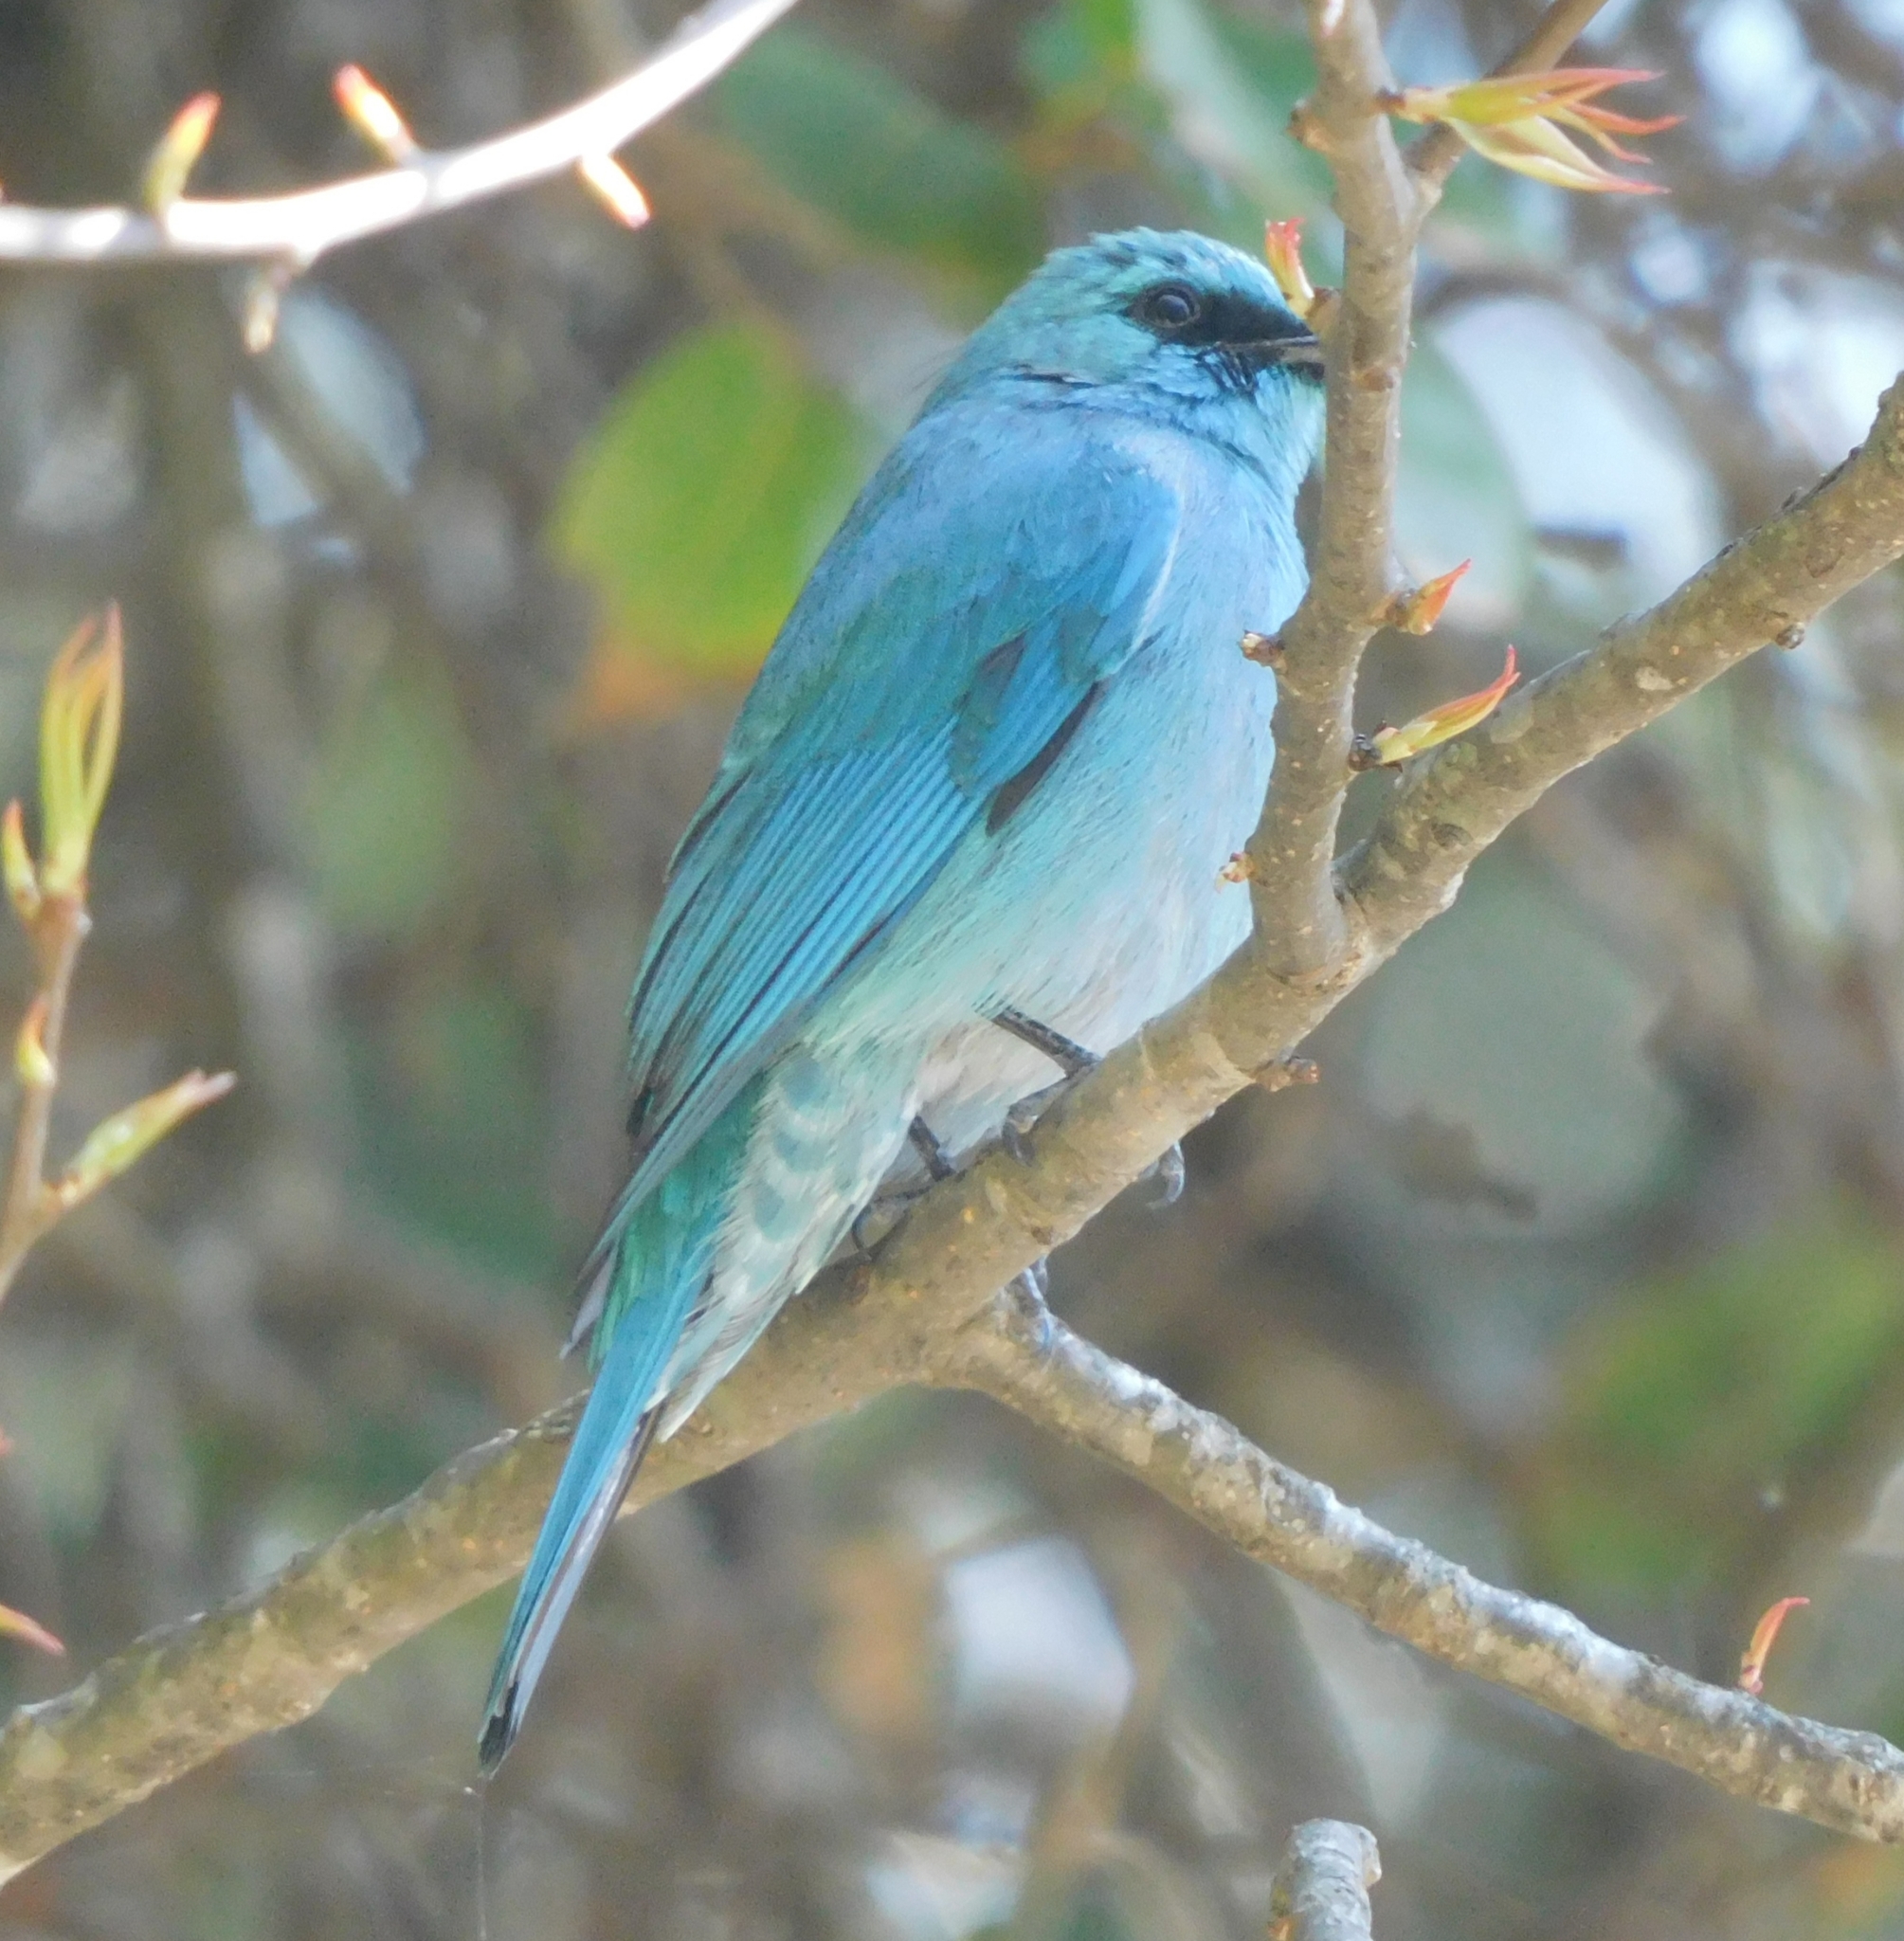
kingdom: Animalia
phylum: Chordata
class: Aves
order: Passeriformes
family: Muscicapidae
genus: Eumyias
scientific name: Eumyias thalassinus
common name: Verditer flycatcher
